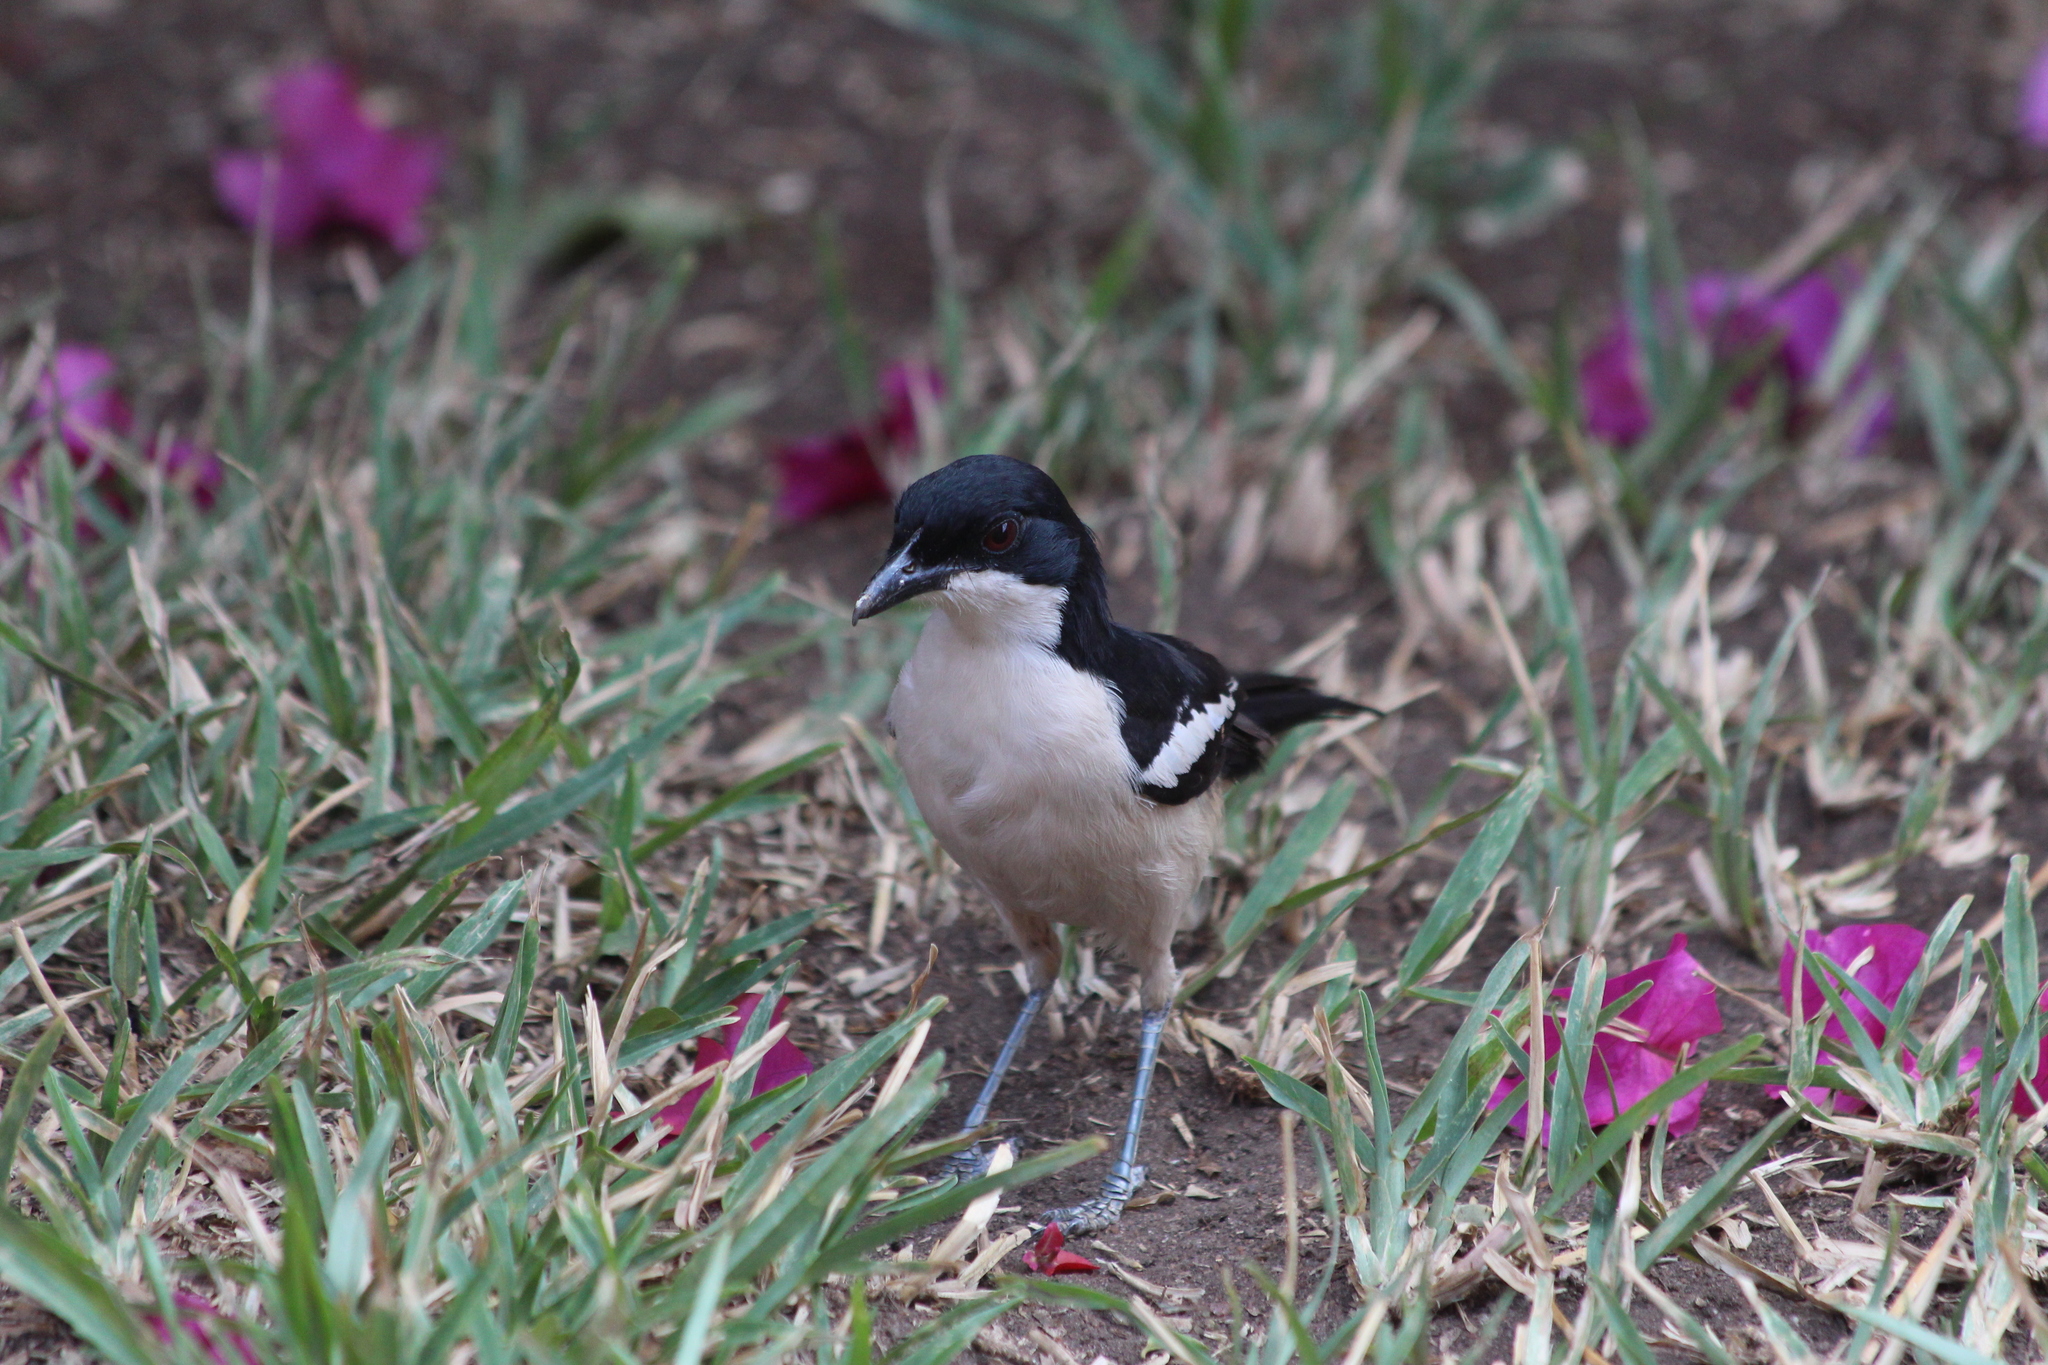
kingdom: Animalia
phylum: Chordata
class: Aves
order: Passeriformes
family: Malaconotidae
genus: Laniarius
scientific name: Laniarius major
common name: Tropical boubou
